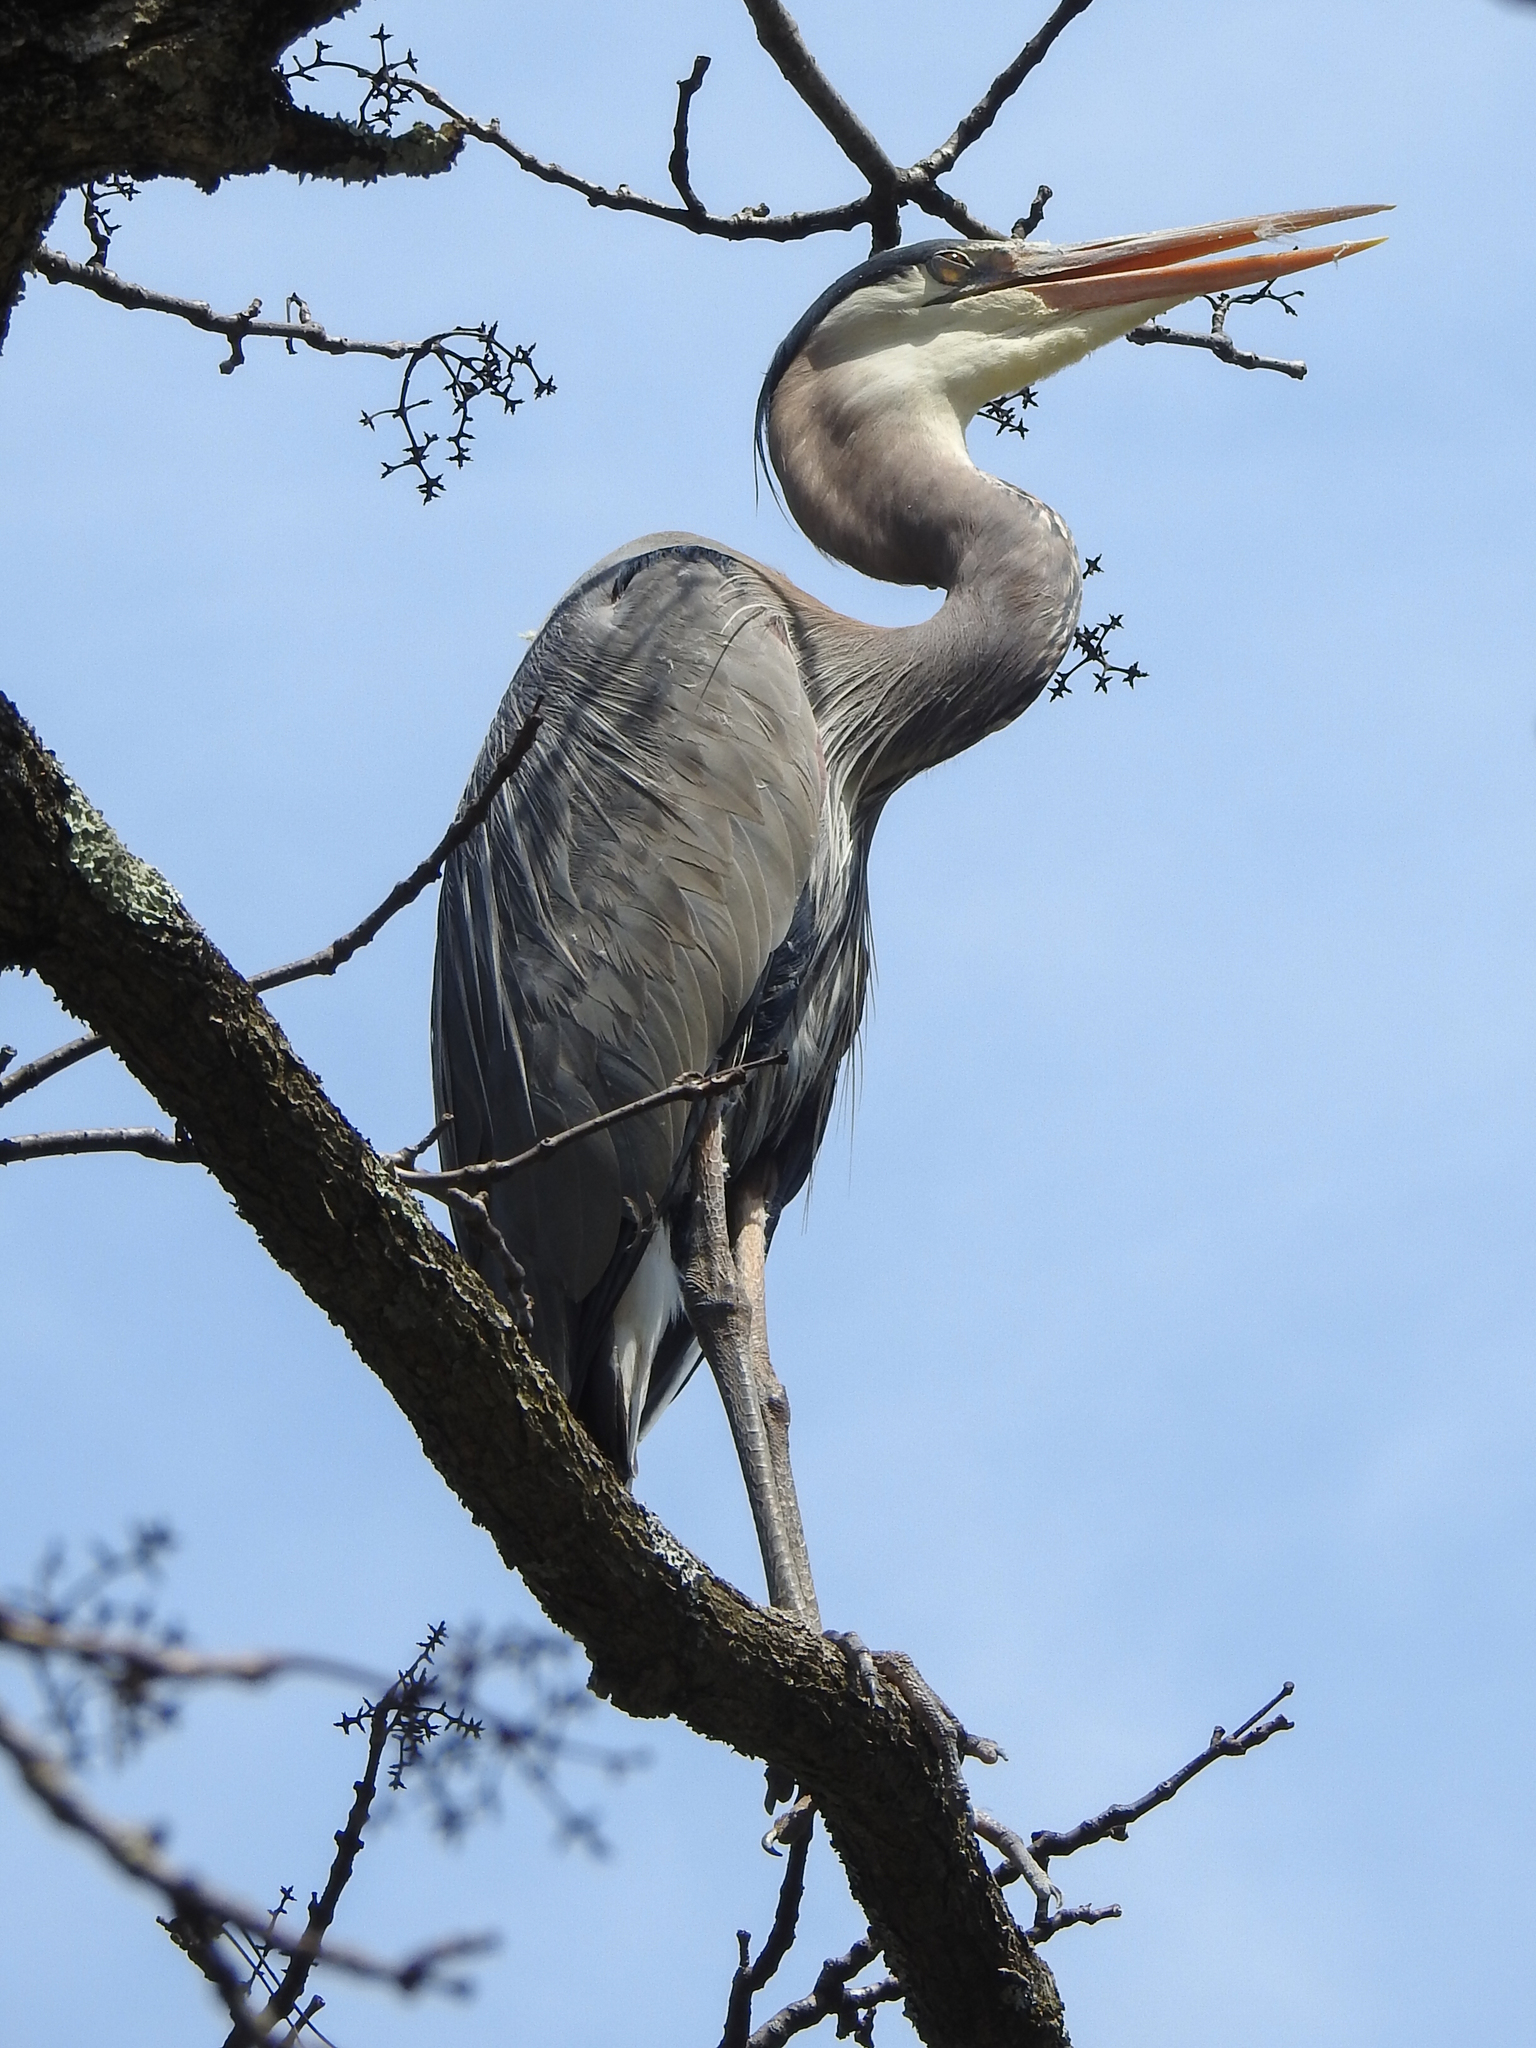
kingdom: Animalia
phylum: Chordata
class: Aves
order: Pelecaniformes
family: Ardeidae
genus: Ardea
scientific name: Ardea herodias
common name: Great blue heron
